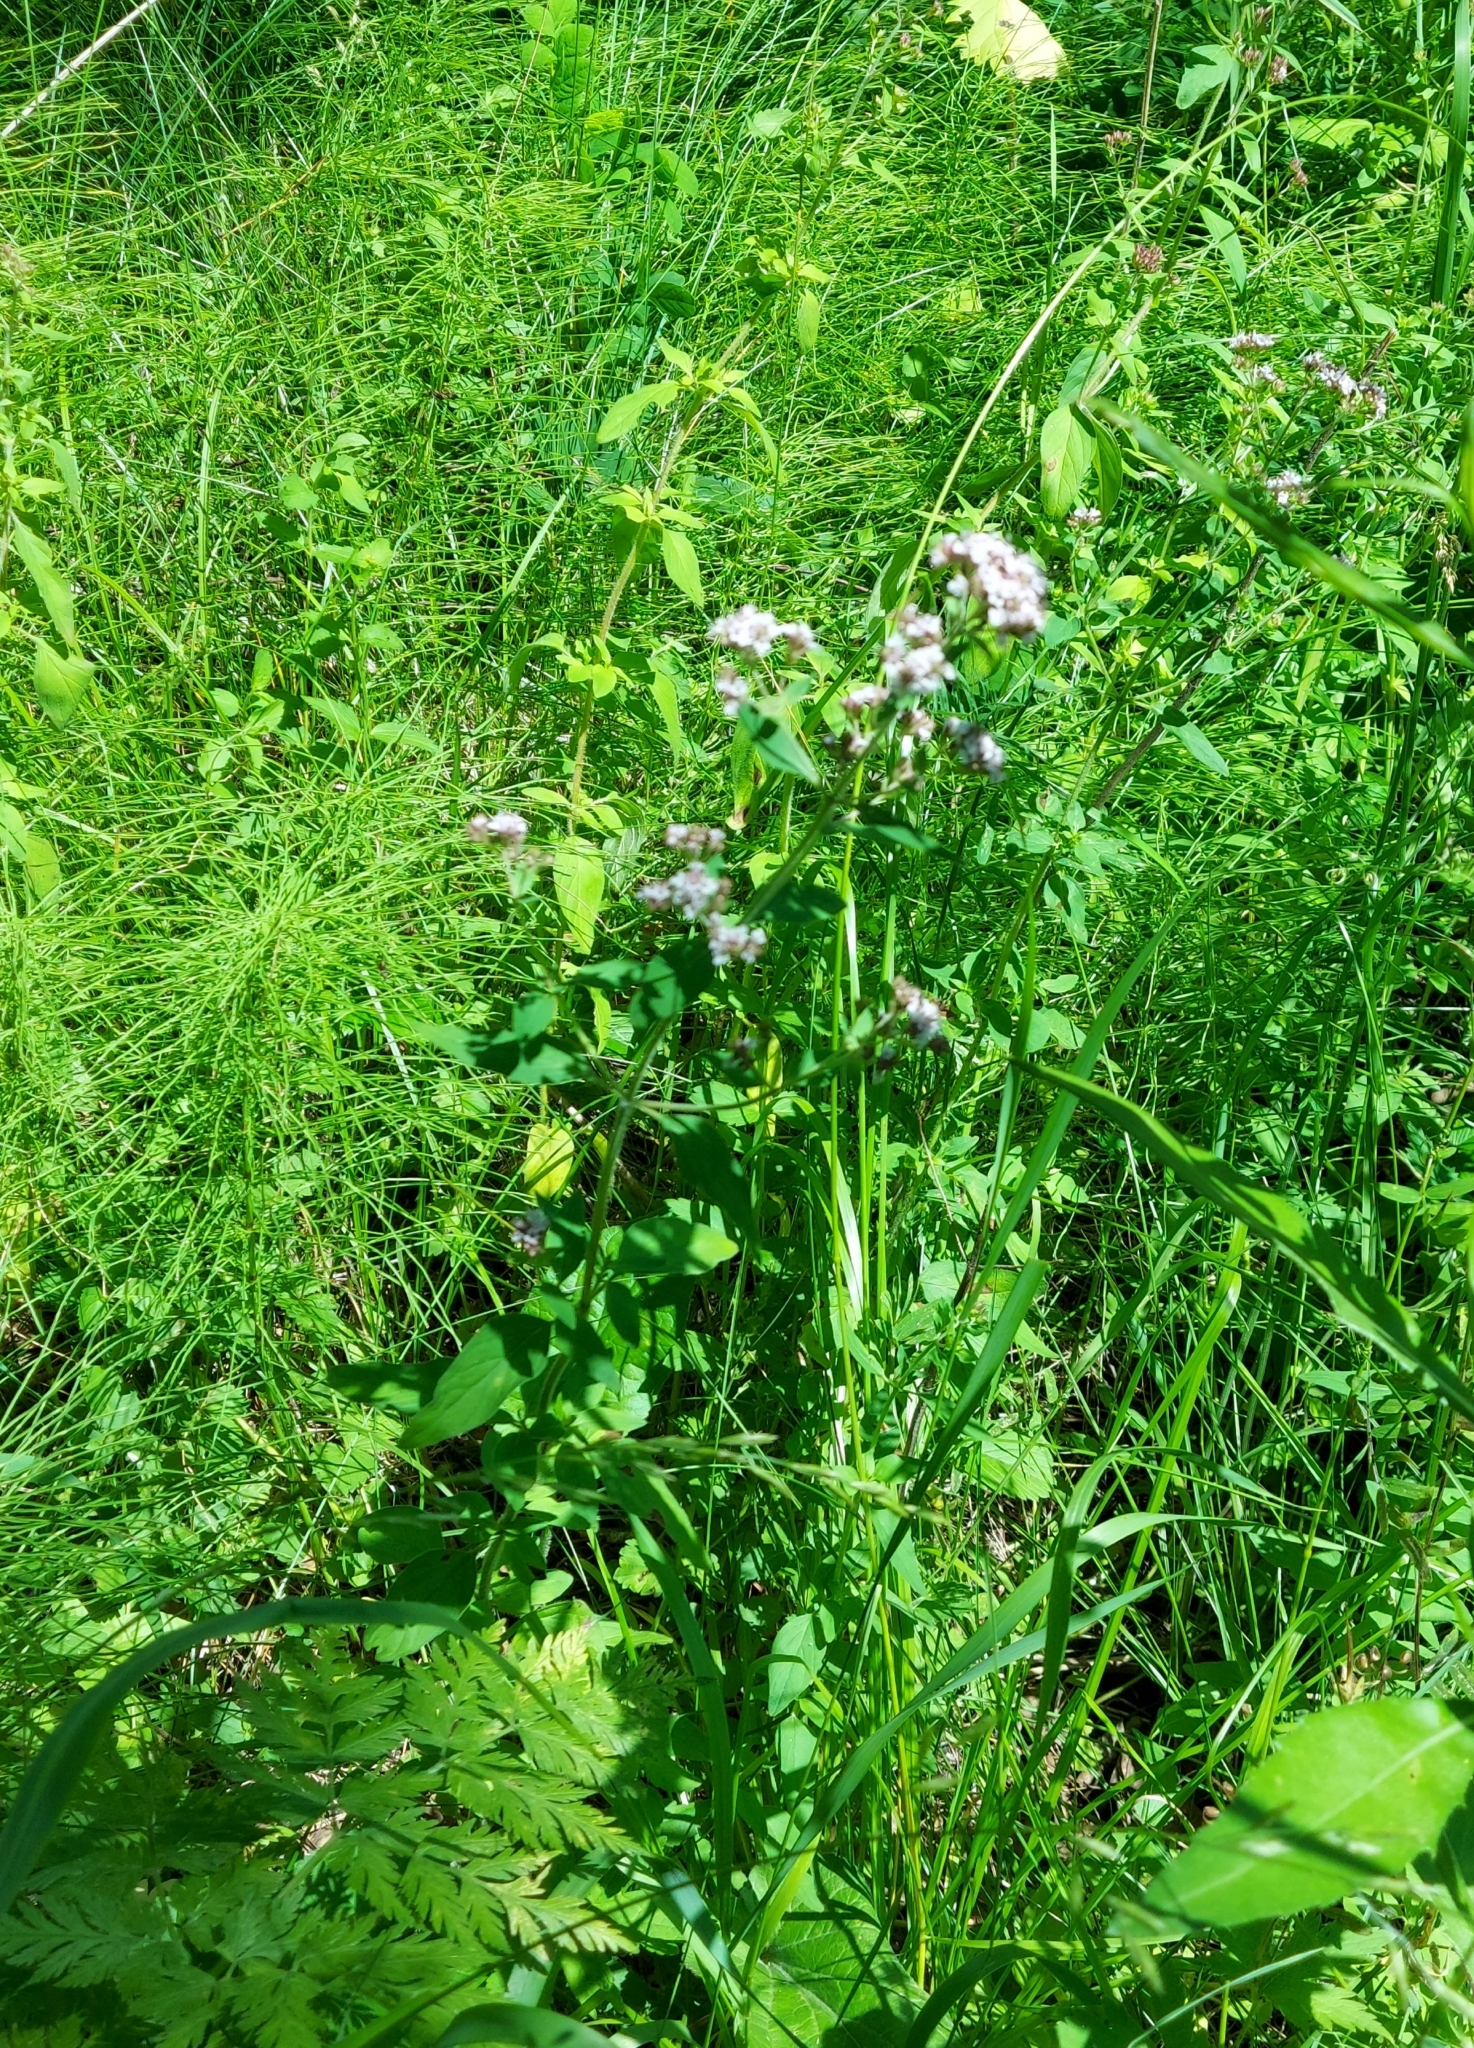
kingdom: Plantae
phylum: Tracheophyta
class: Magnoliopsida
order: Lamiales
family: Lamiaceae
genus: Origanum
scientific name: Origanum vulgare
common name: Wild marjoram
